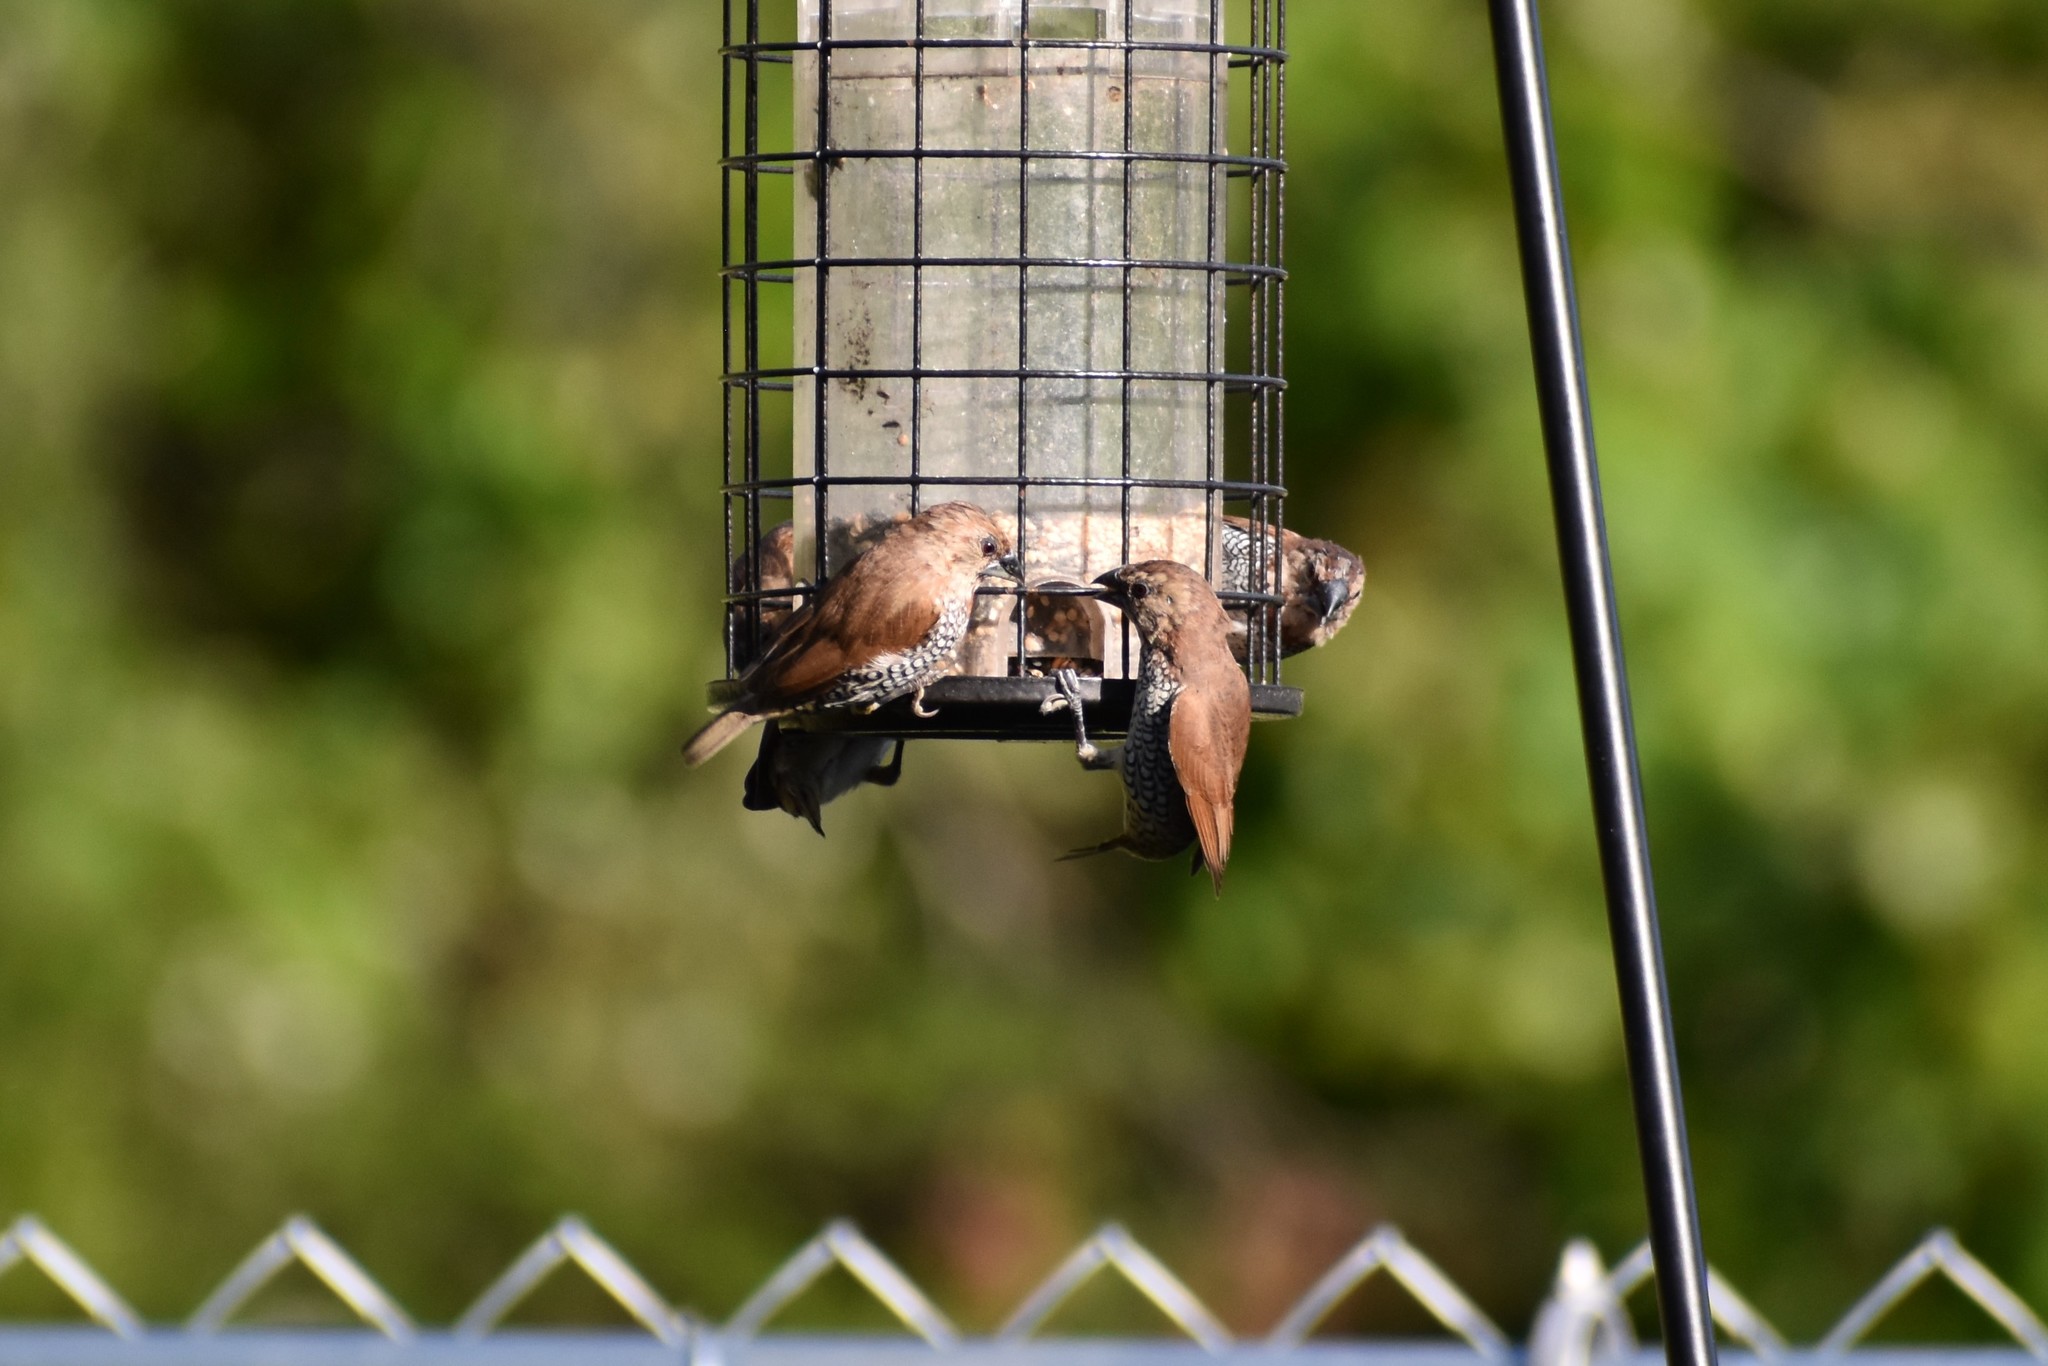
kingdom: Animalia
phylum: Chordata
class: Aves
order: Passeriformes
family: Estrildidae
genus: Lonchura
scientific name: Lonchura punctulata
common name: Scaly-breasted munia
